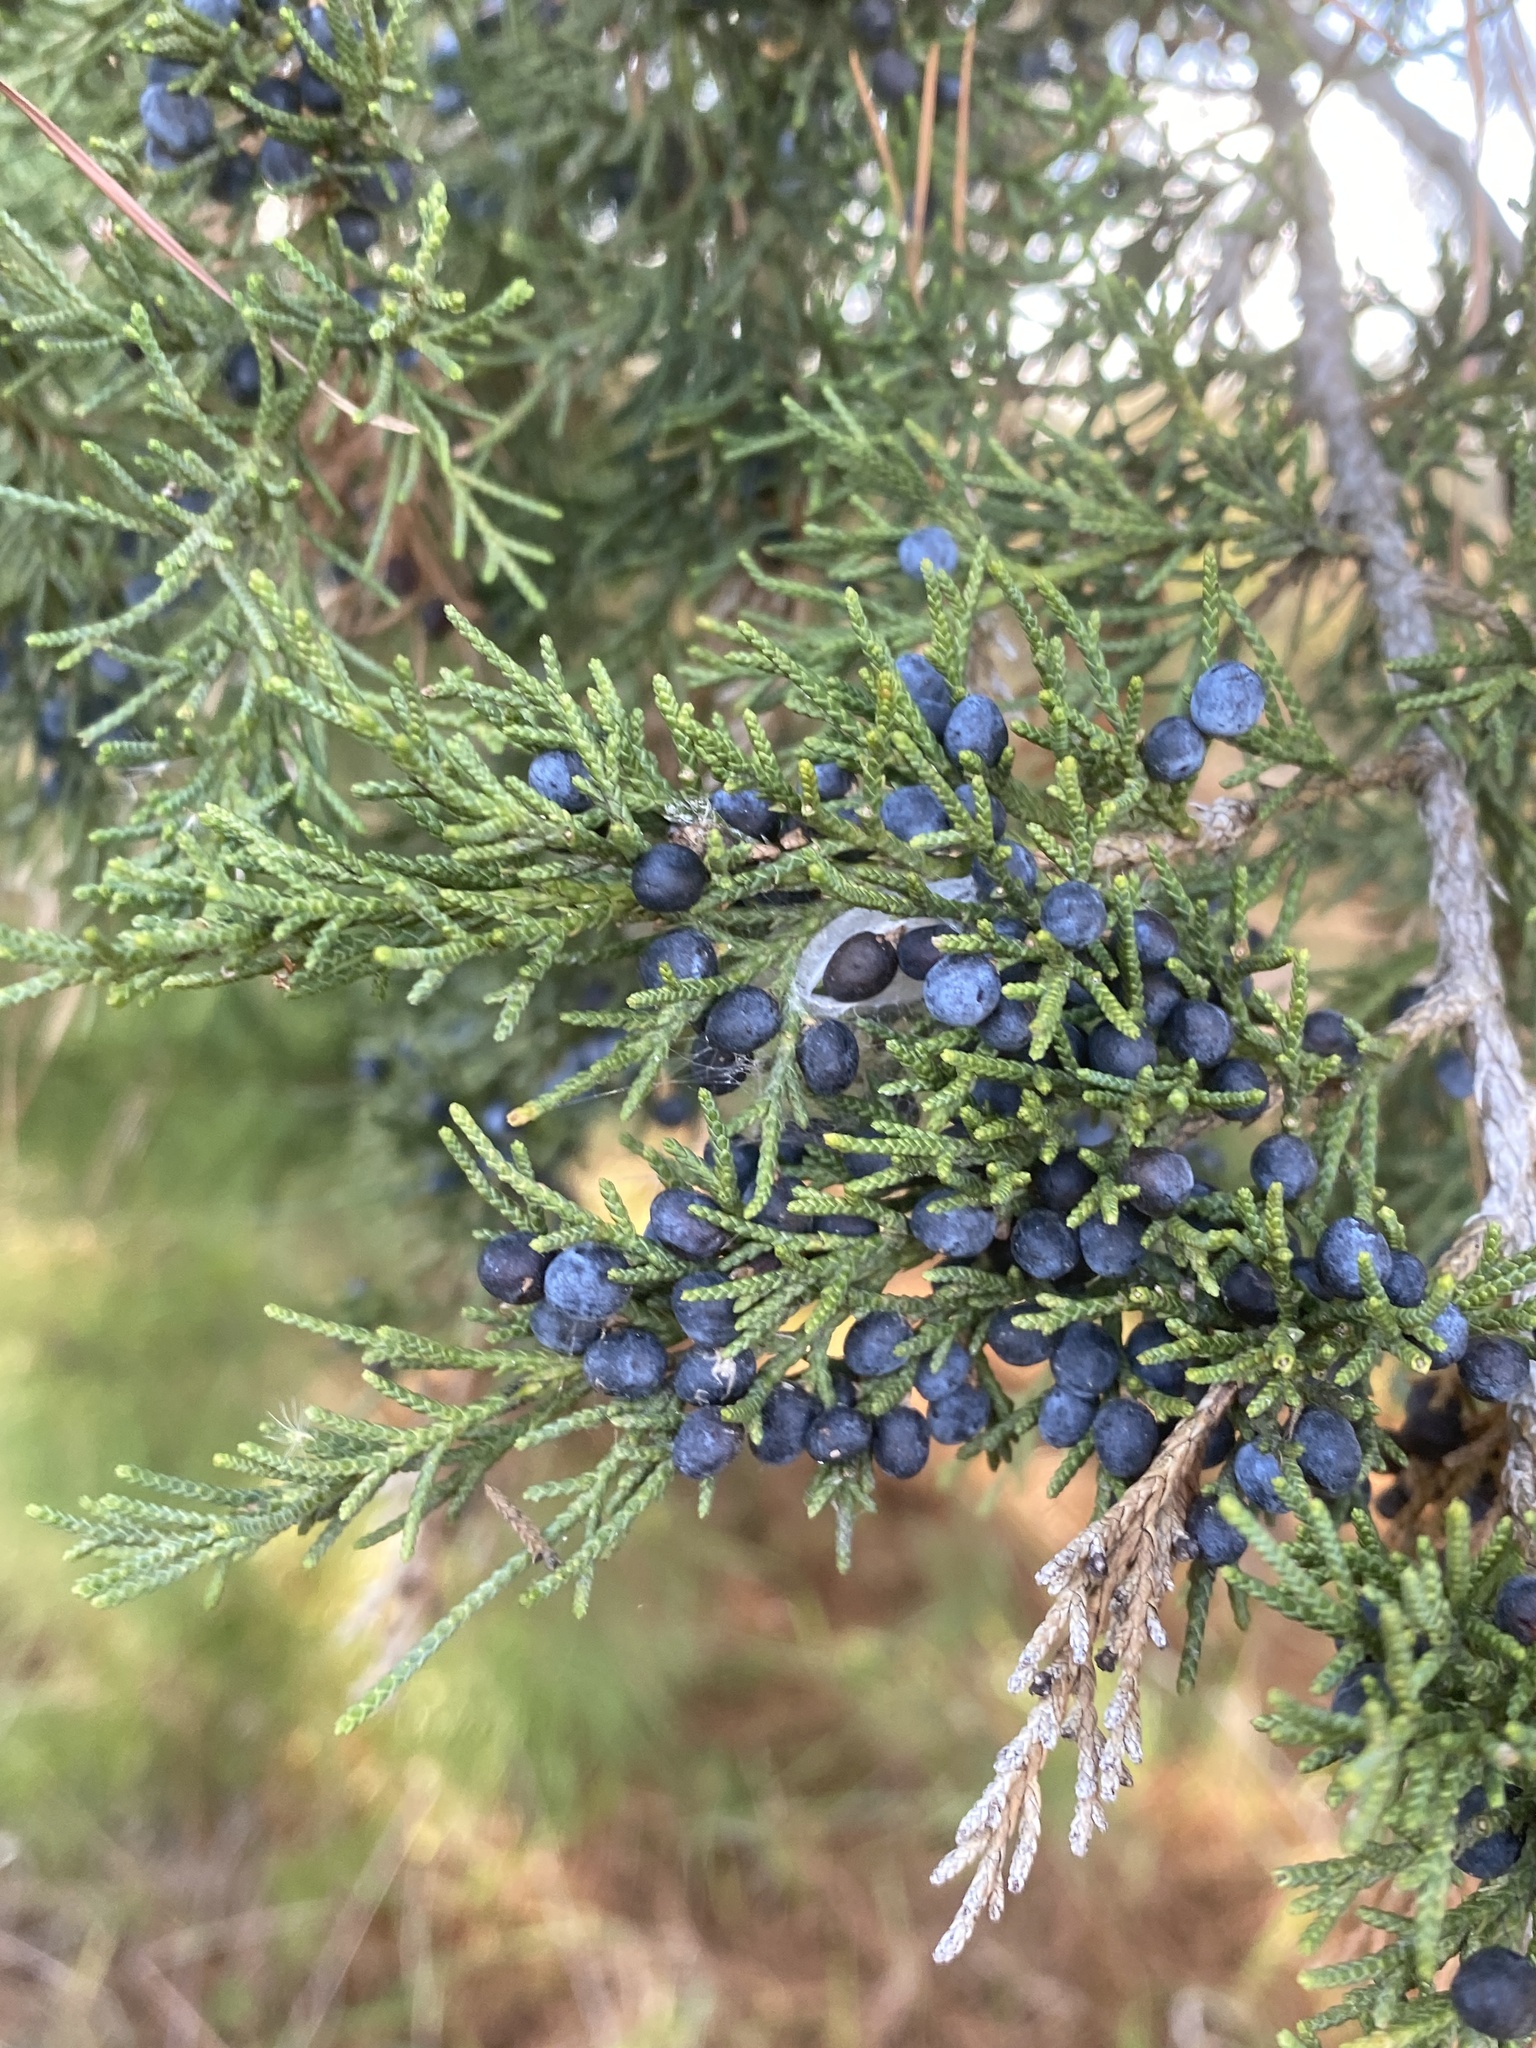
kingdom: Plantae
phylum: Tracheophyta
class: Pinopsida
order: Pinales
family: Cupressaceae
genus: Juniperus
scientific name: Juniperus virginiana
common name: Red juniper
